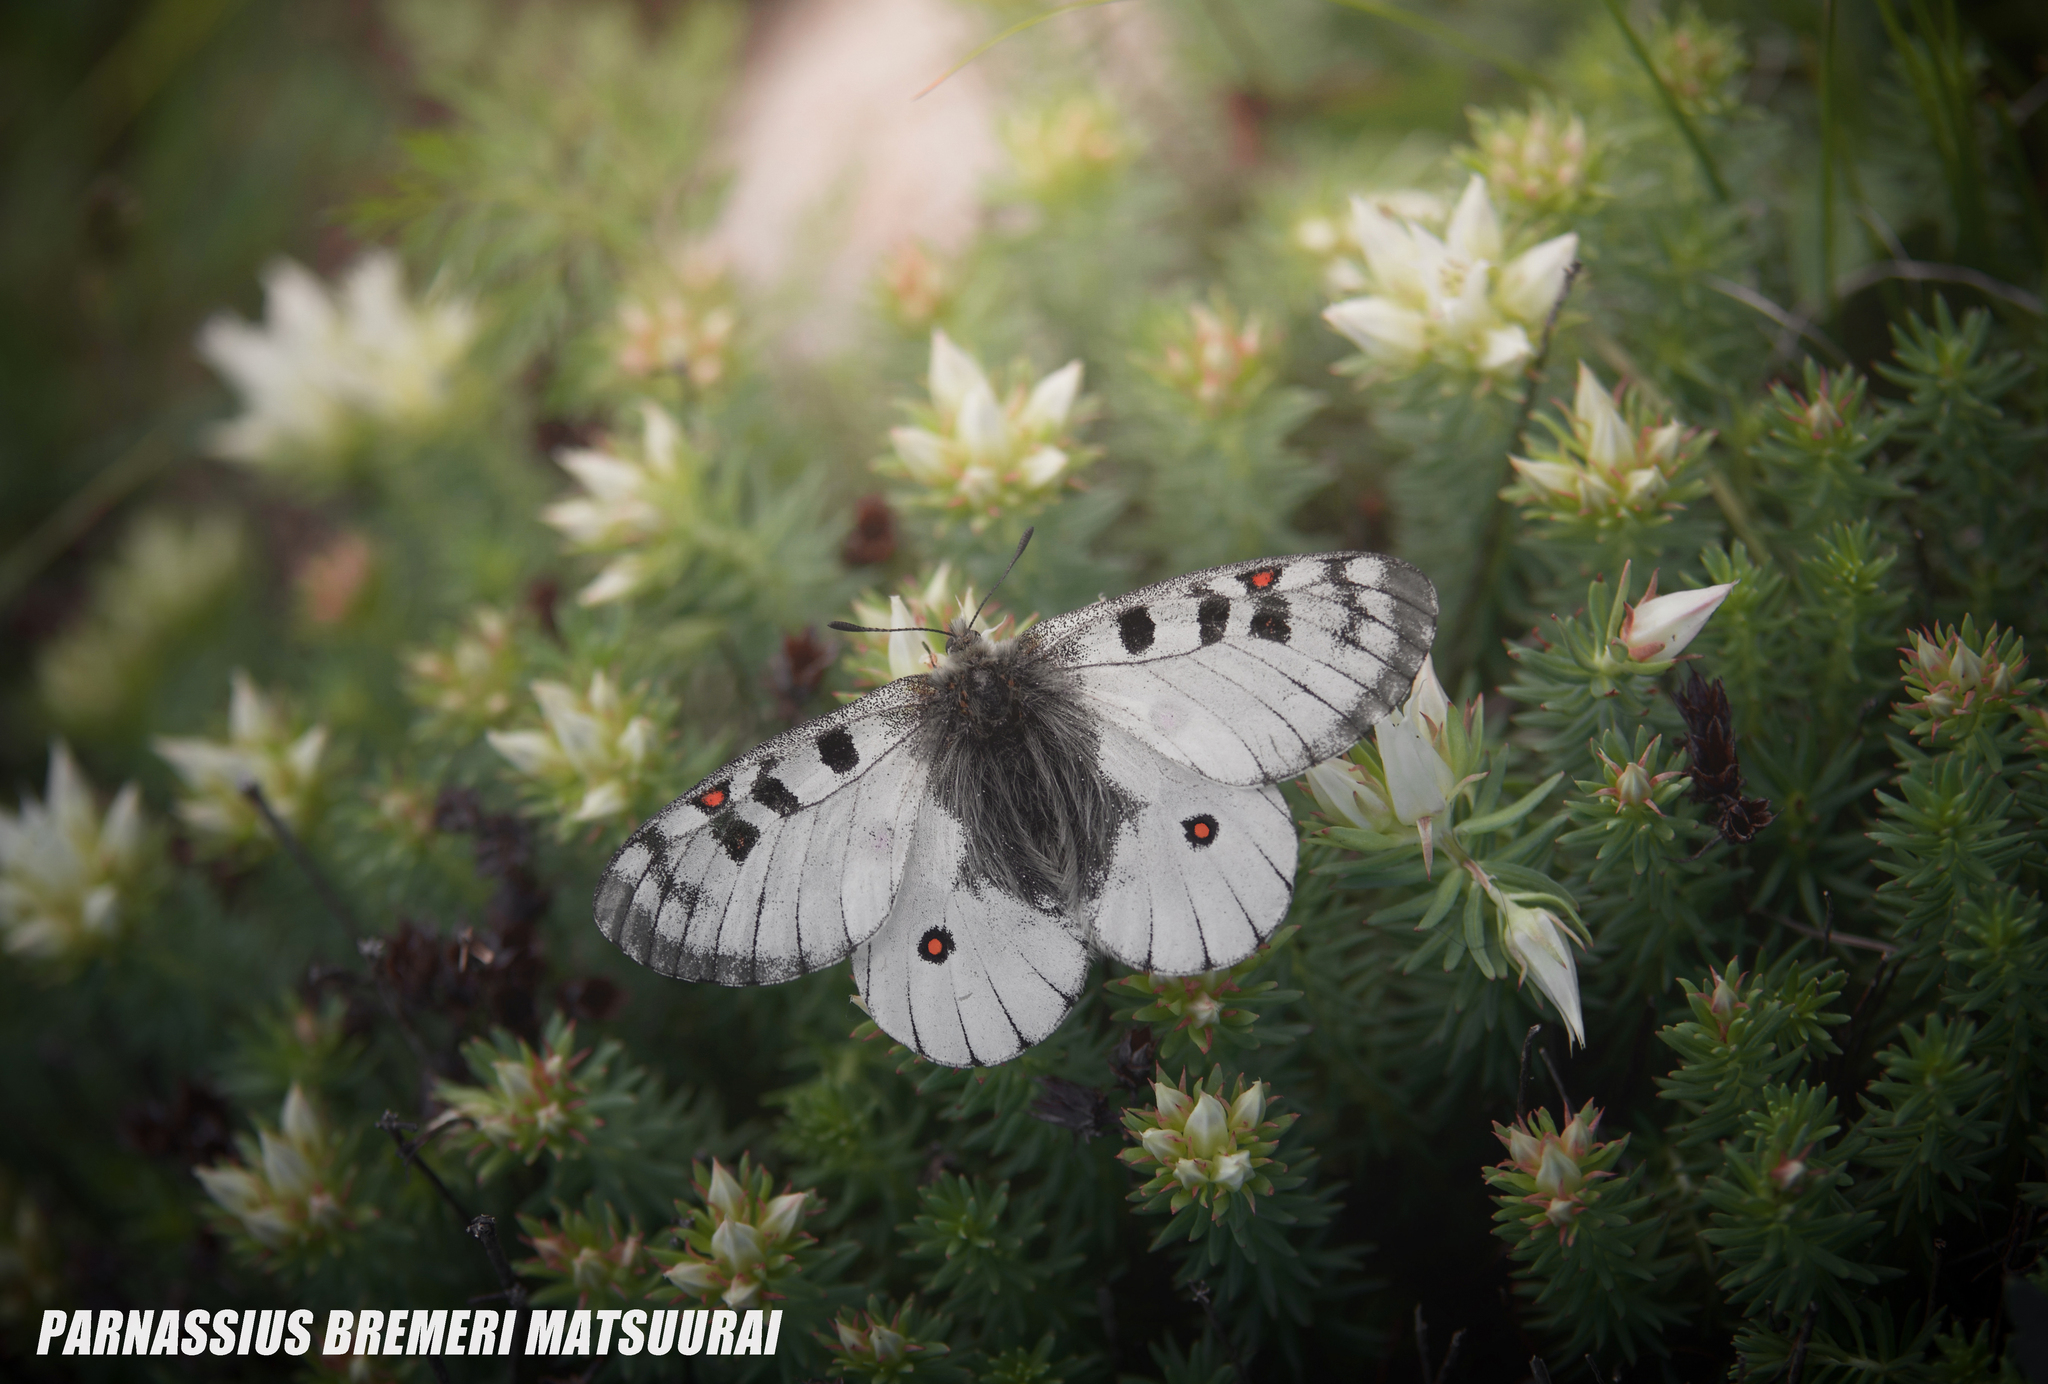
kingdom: Animalia
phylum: Arthropoda
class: Insecta
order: Lepidoptera
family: Papilionidae
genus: Parnassius
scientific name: Parnassius bremeri
